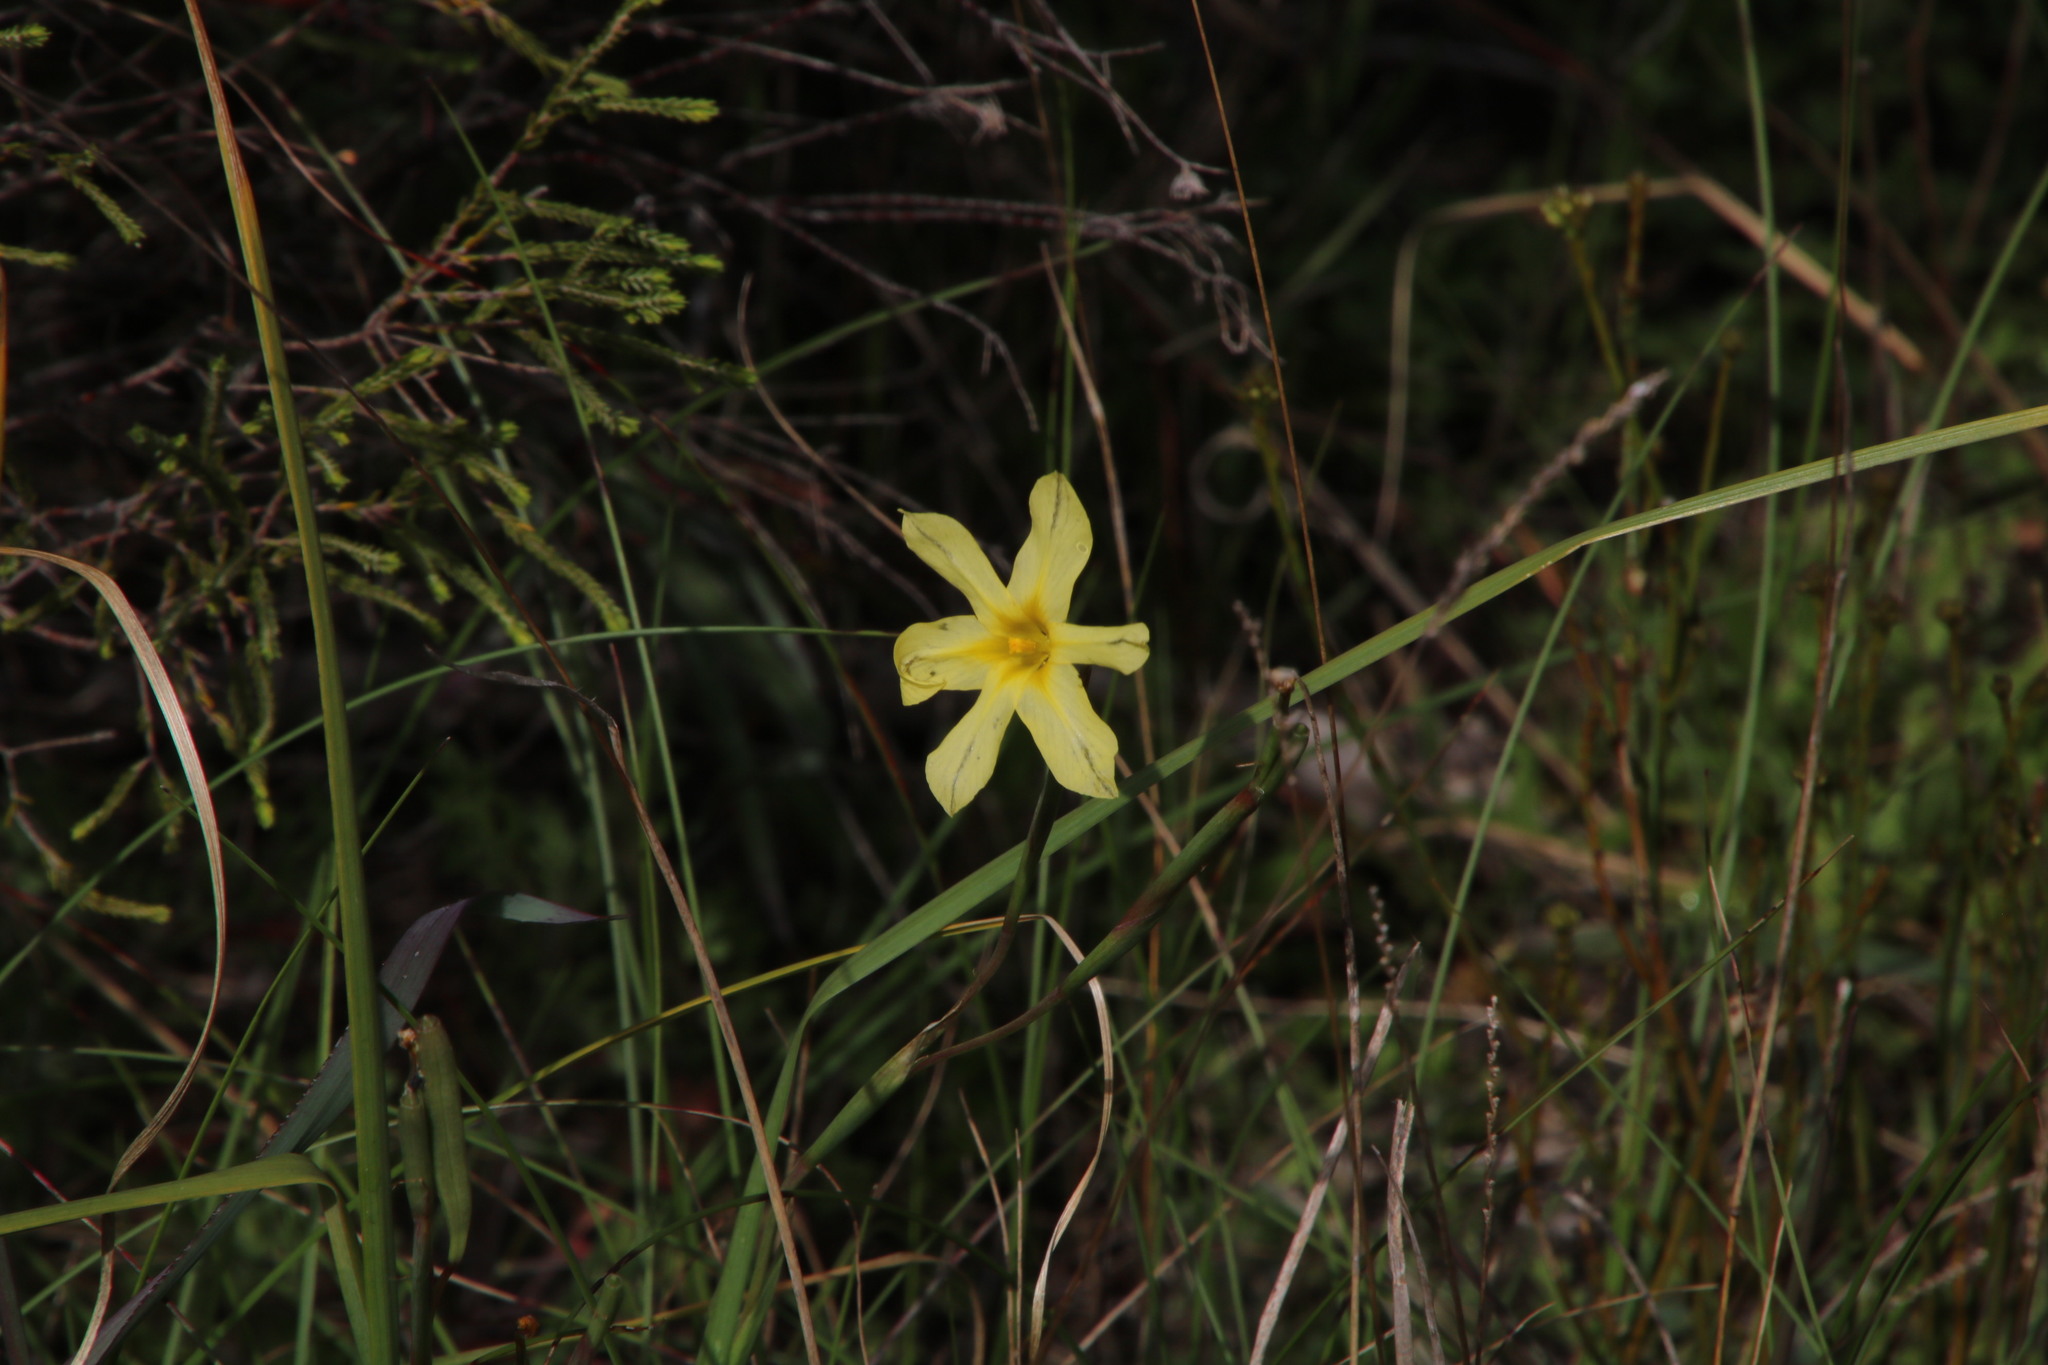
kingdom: Plantae
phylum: Tracheophyta
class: Liliopsida
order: Asparagales
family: Iridaceae
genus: Moraea
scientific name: Moraea flaccida
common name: One-leaf cape-tulip
